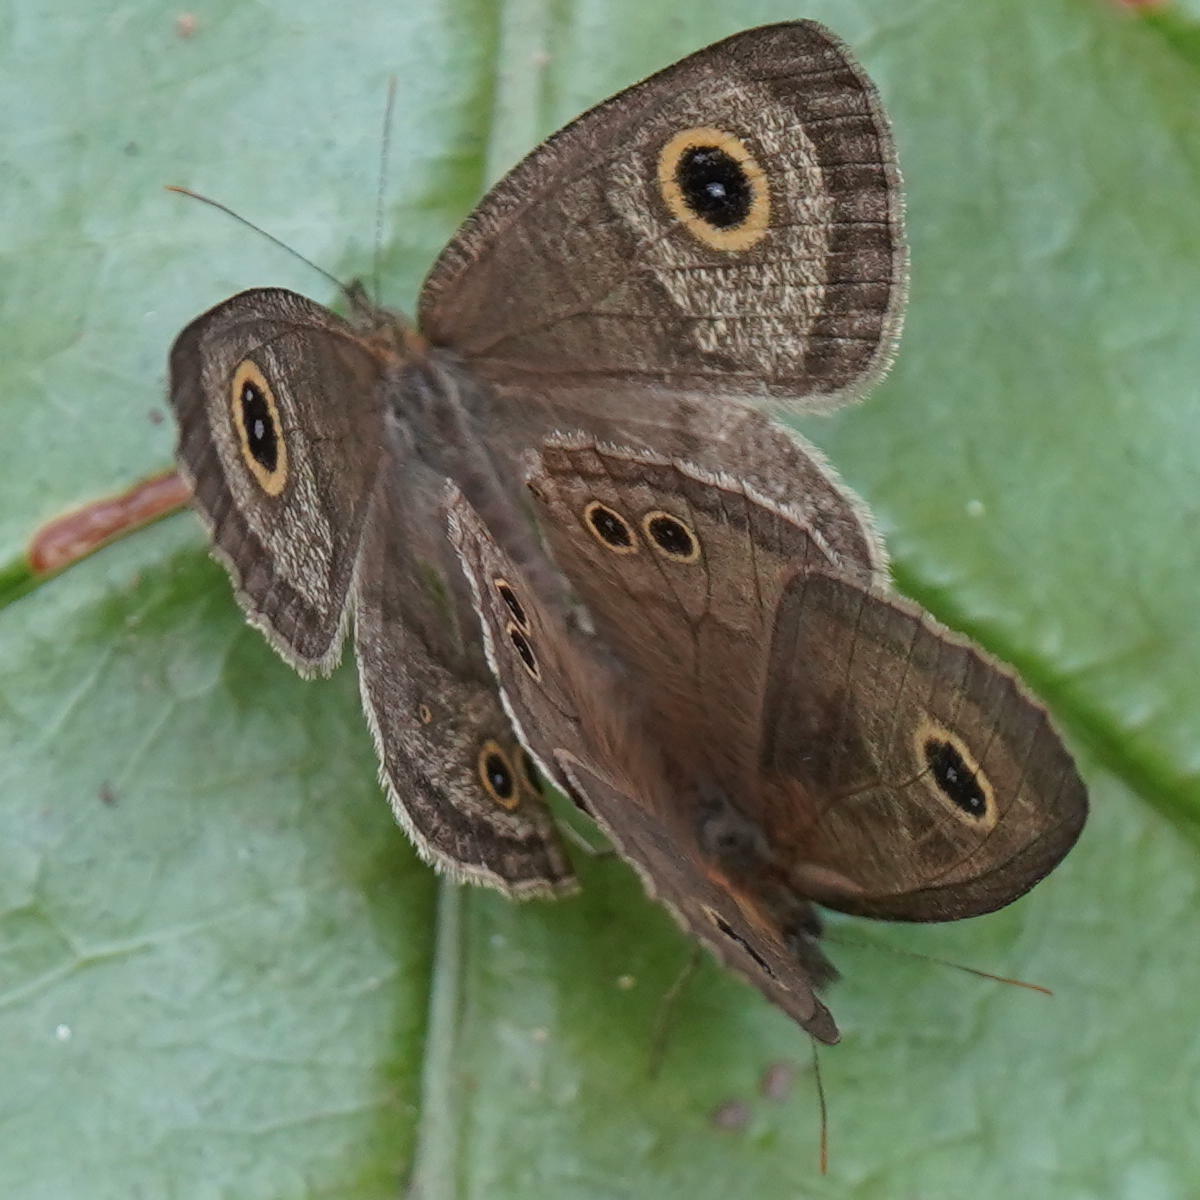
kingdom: Animalia
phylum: Arthropoda
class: Insecta
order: Lepidoptera
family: Nymphalidae
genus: Ypthima
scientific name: Ypthima baldus
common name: Common five-ring
